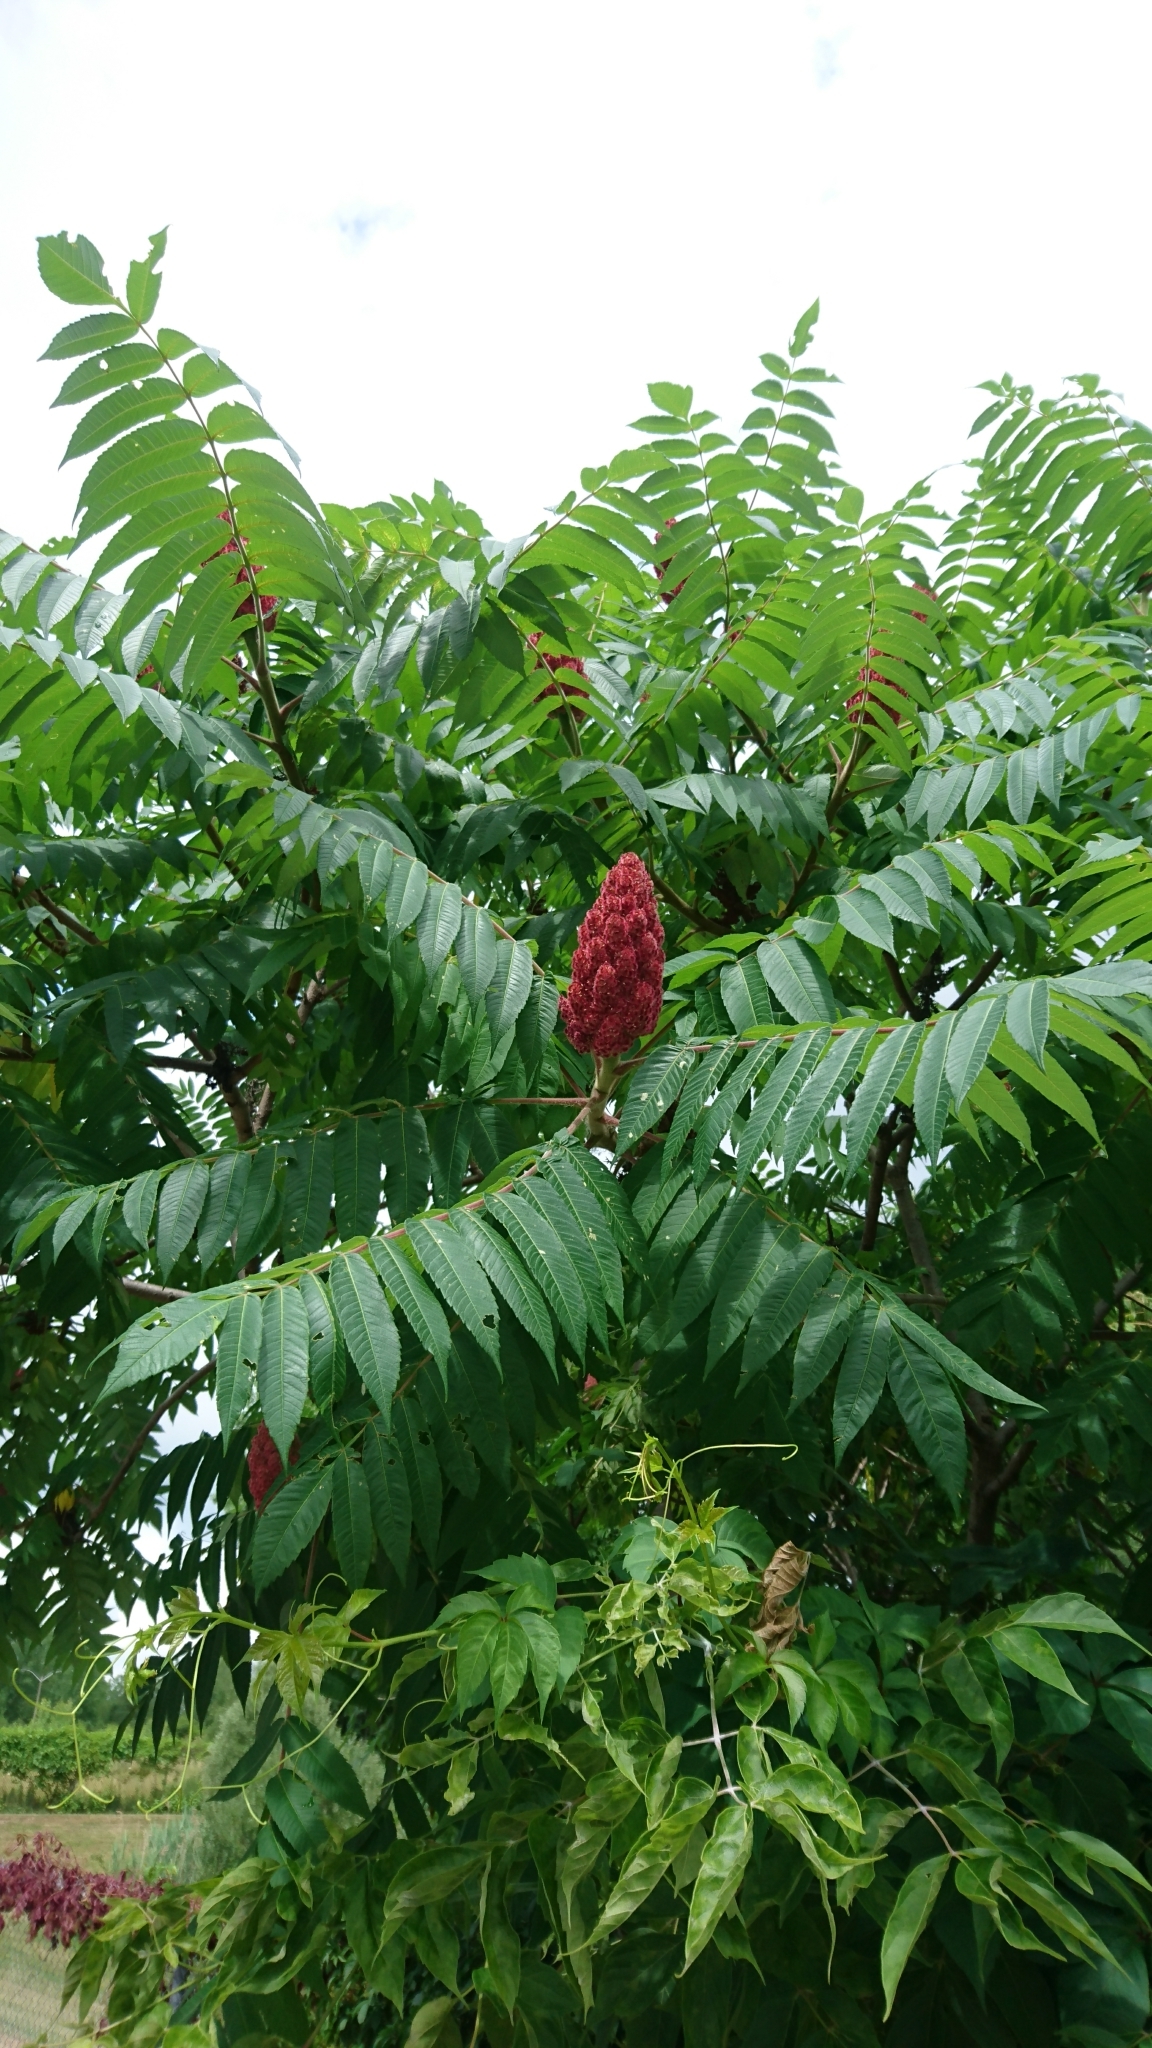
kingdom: Plantae
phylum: Tracheophyta
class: Magnoliopsida
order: Sapindales
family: Anacardiaceae
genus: Rhus
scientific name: Rhus typhina
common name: Staghorn sumac
